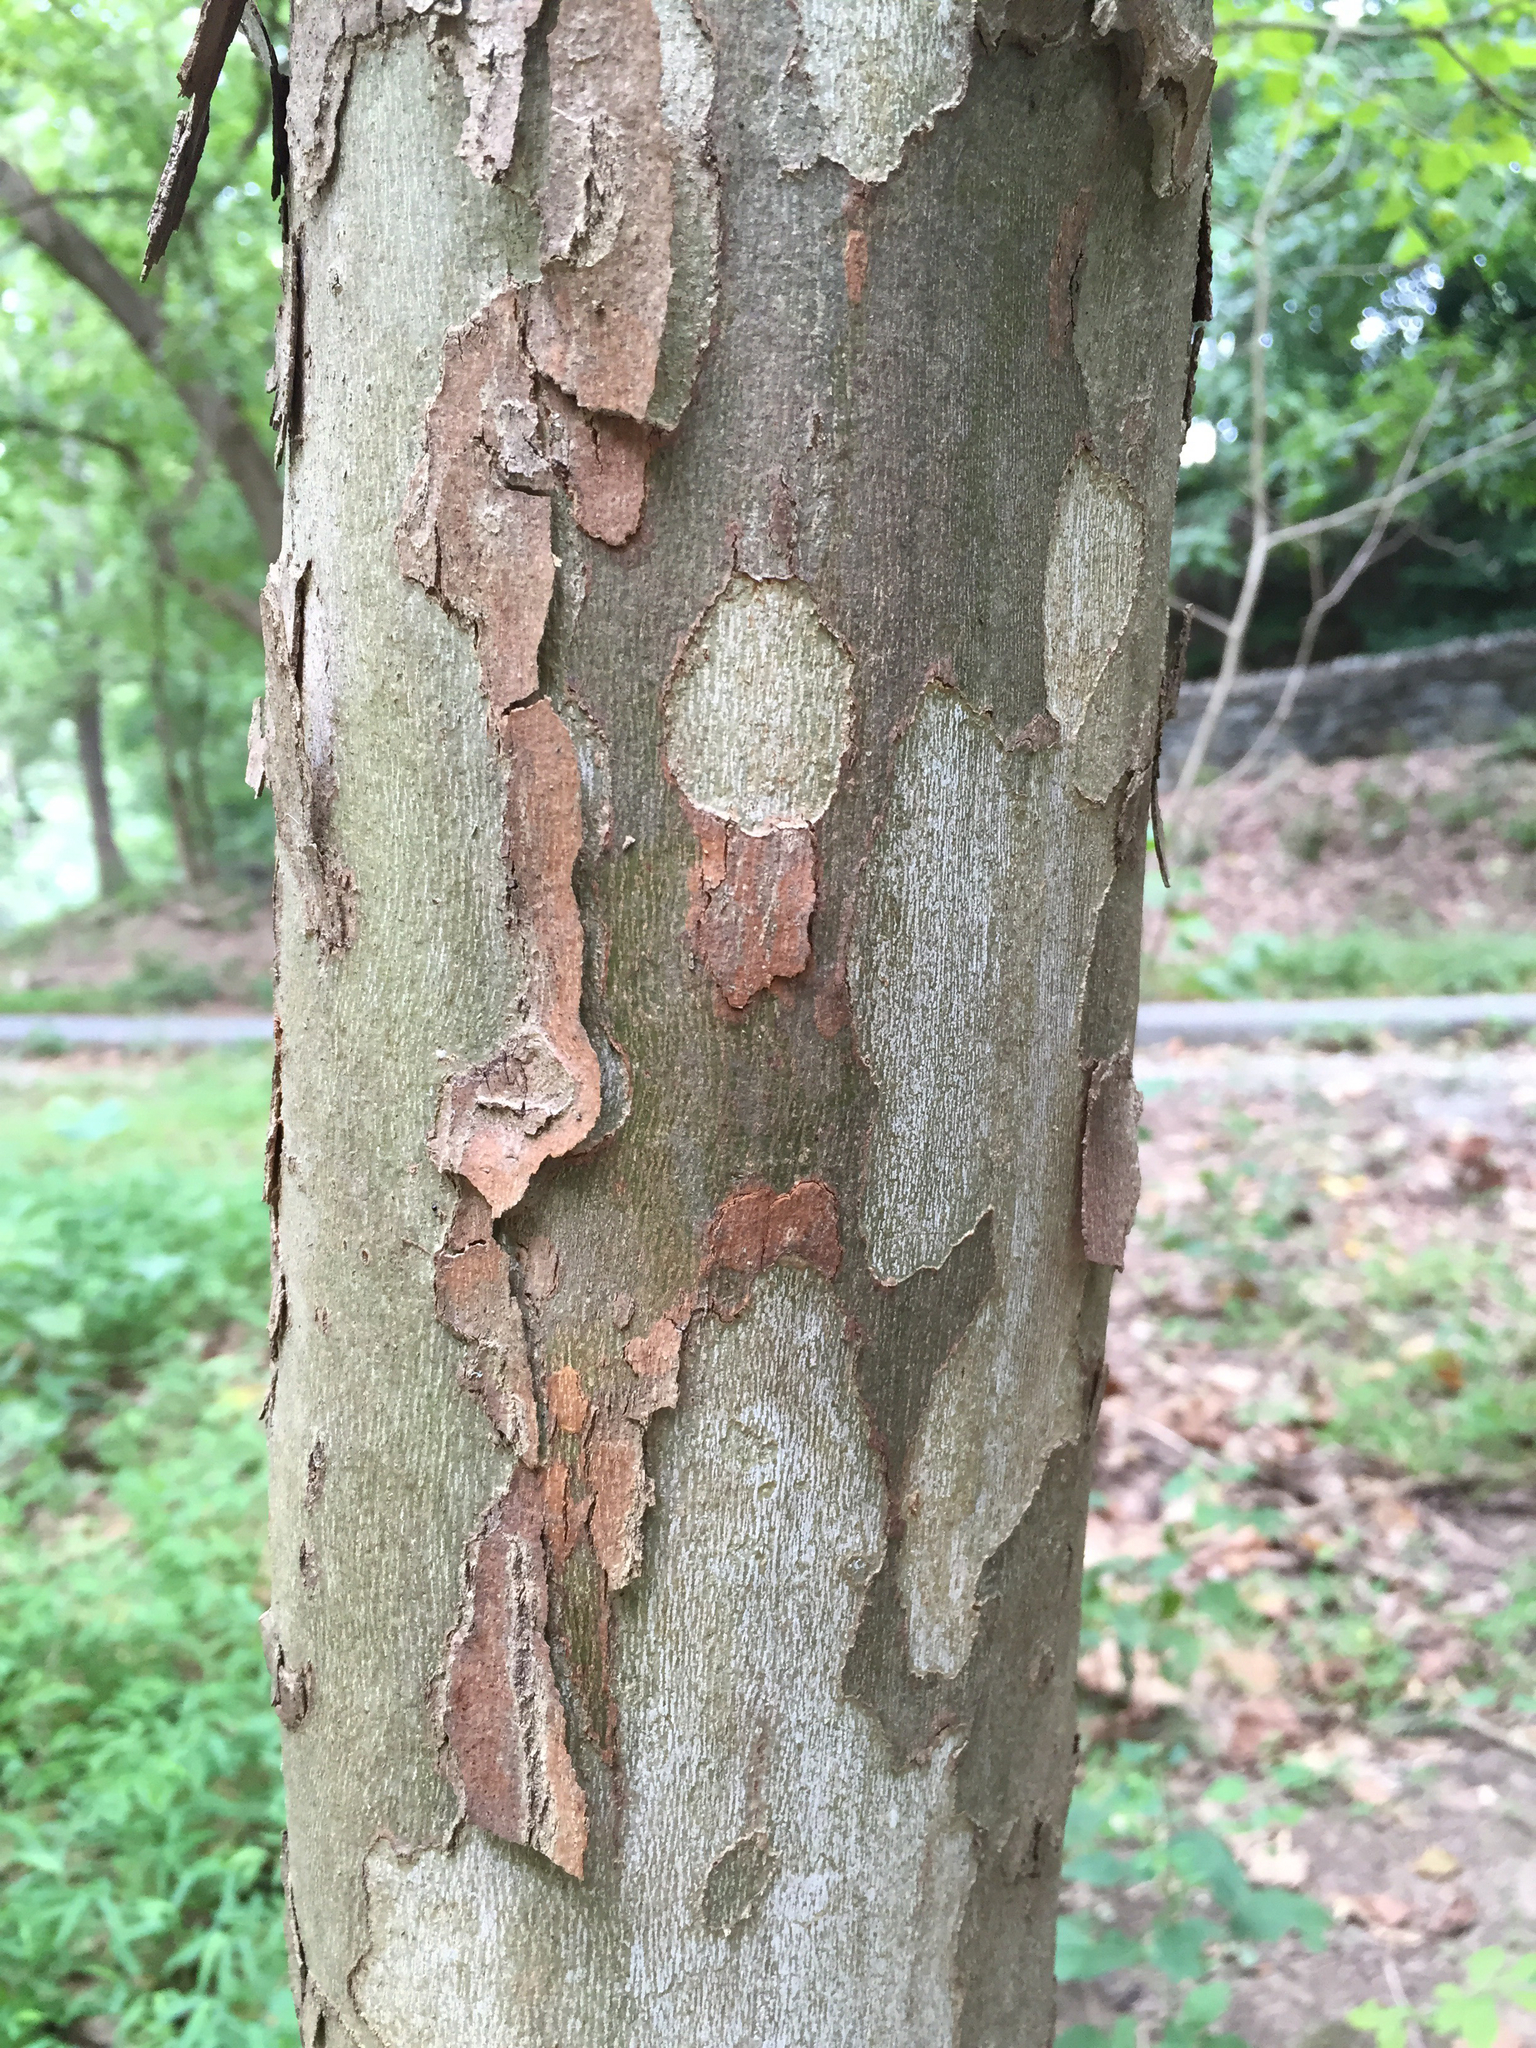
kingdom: Plantae
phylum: Tracheophyta
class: Magnoliopsida
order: Proteales
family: Platanaceae
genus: Platanus
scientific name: Platanus occidentalis
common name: American sycamore
